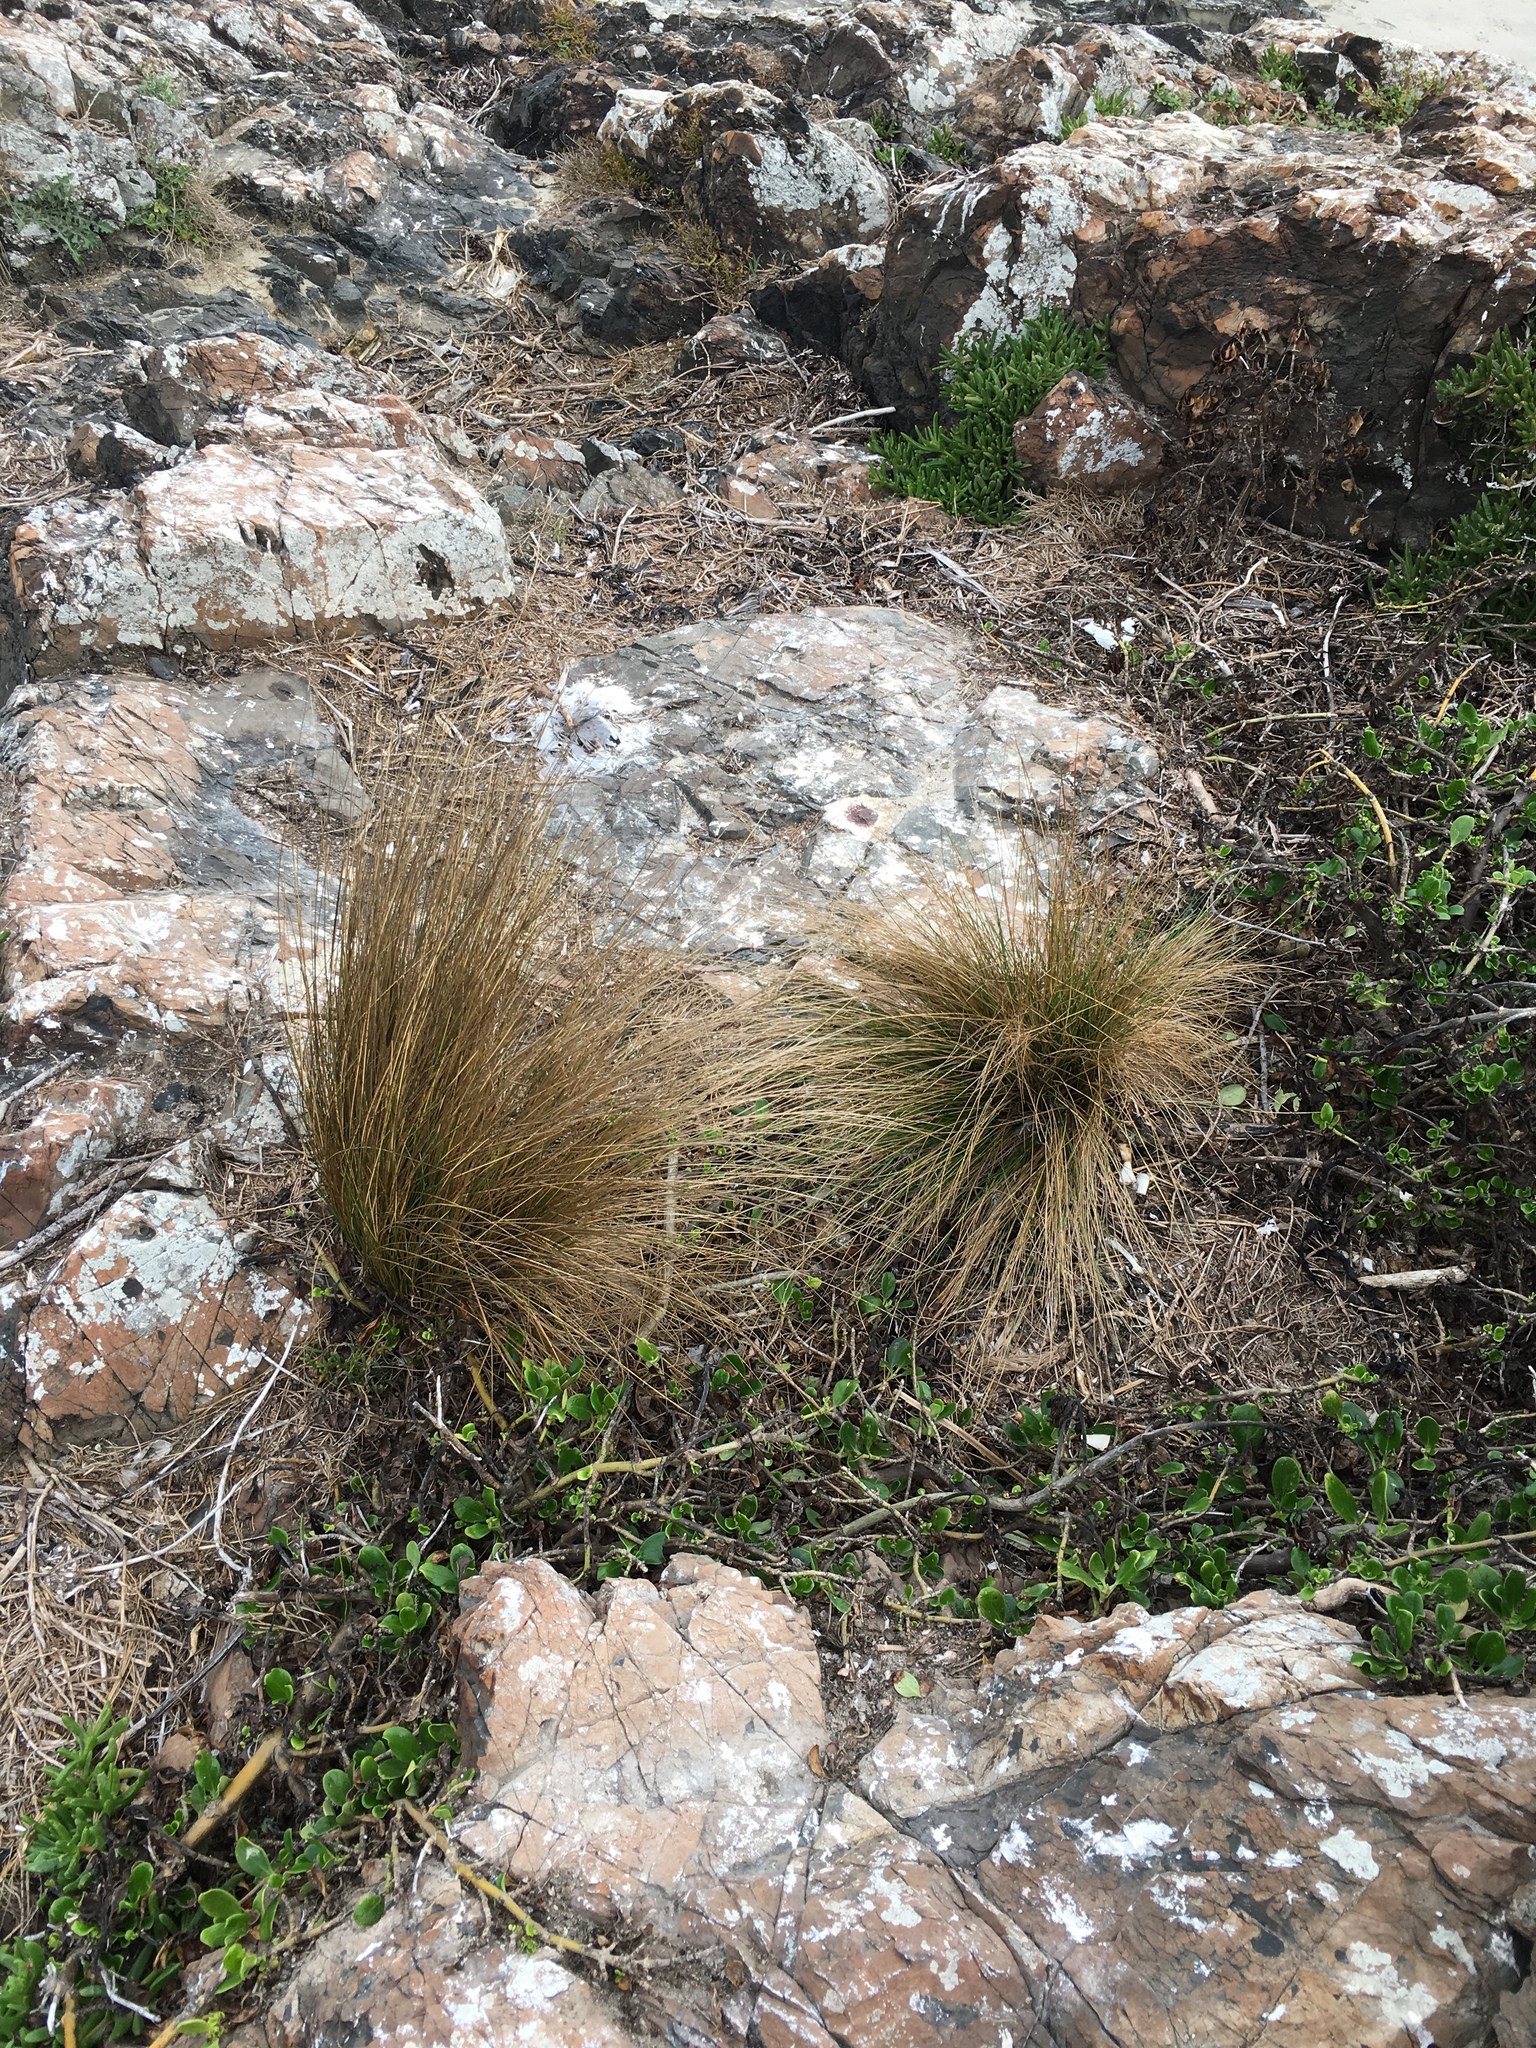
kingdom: Plantae
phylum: Tracheophyta
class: Liliopsida
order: Poales
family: Poaceae
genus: Austrostipa
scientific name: Austrostipa stipoides
